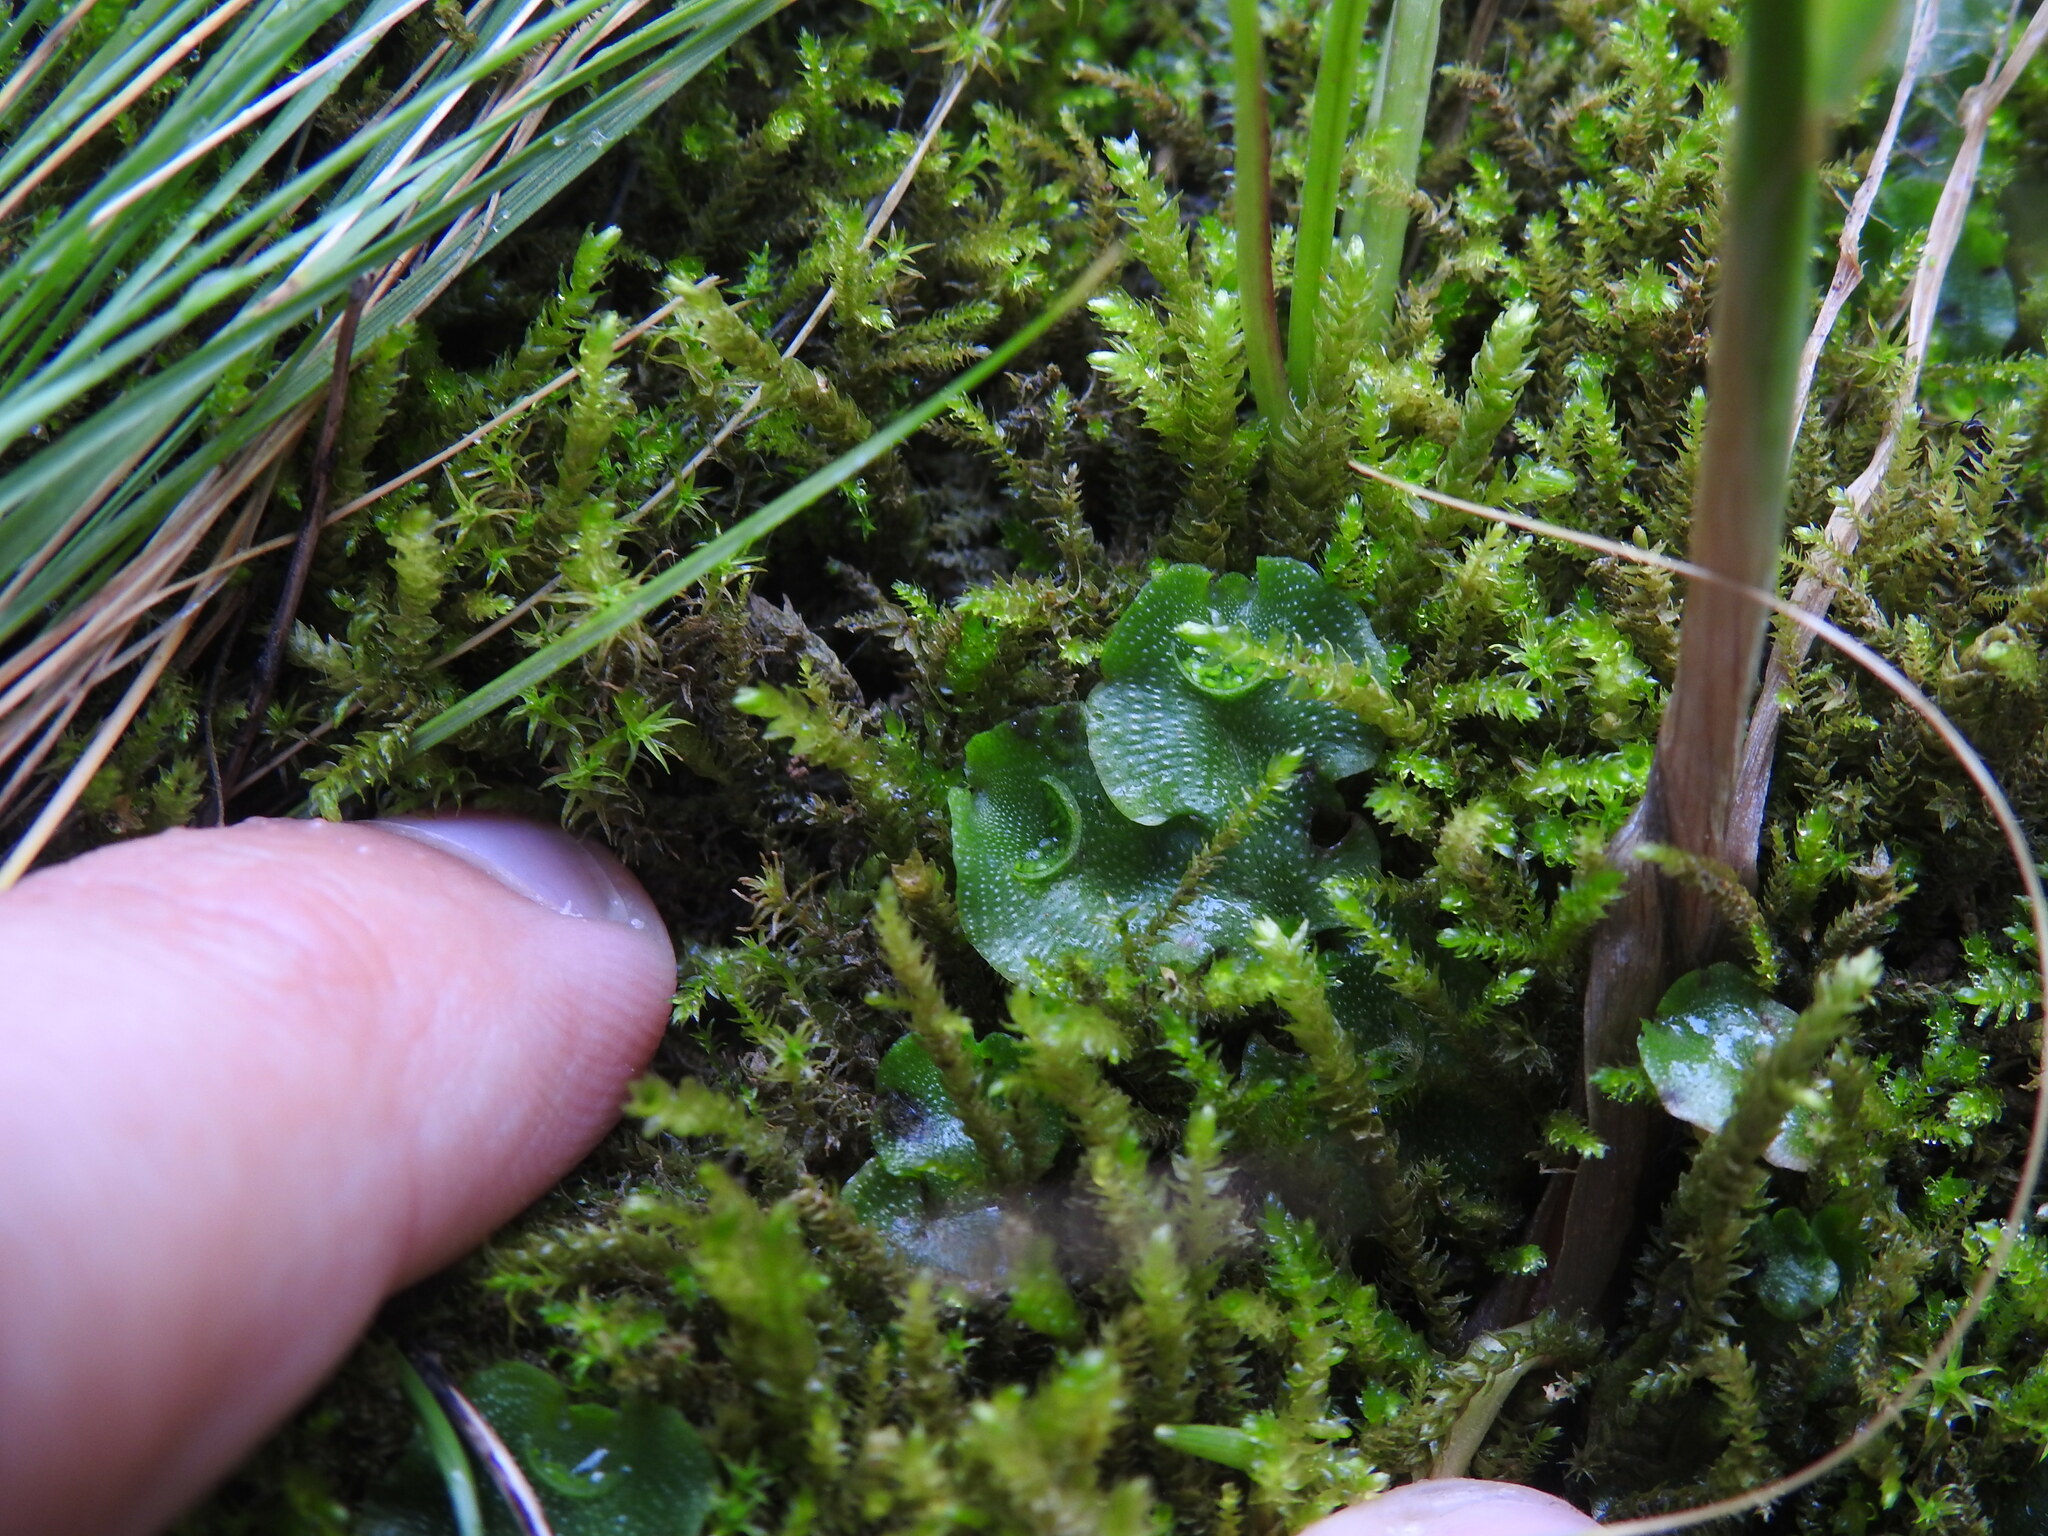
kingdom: Plantae
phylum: Marchantiophyta
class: Marchantiopsida
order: Lunulariales
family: Lunulariaceae
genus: Lunularia
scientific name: Lunularia cruciata
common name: Crescent-cup liverwort
